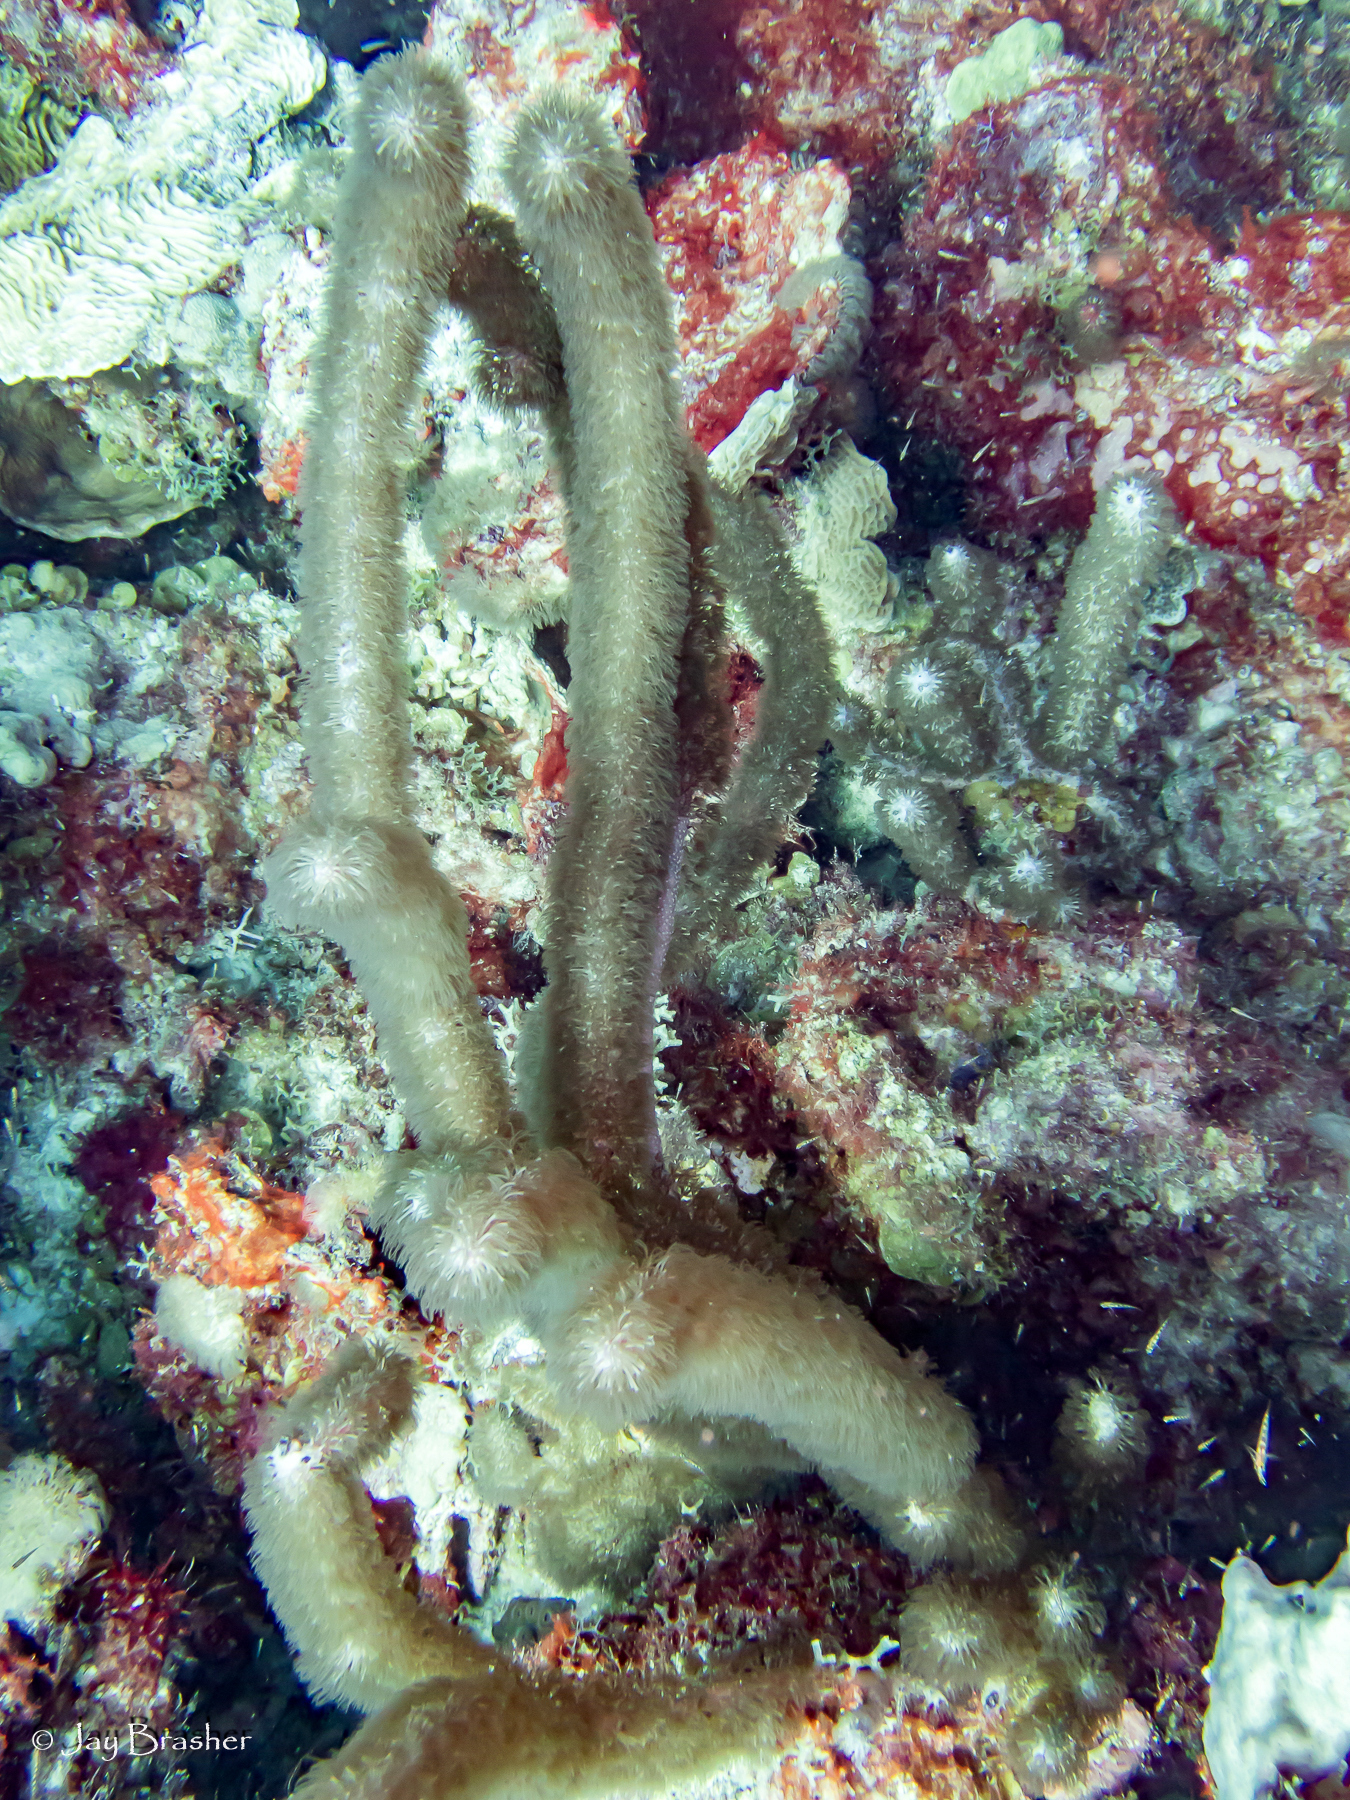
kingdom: Animalia
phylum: Cnidaria
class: Anthozoa
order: Scleralcyonacea
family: Briareidae
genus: Briareum
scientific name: Briareum asbestinum
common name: Corky sea finger
